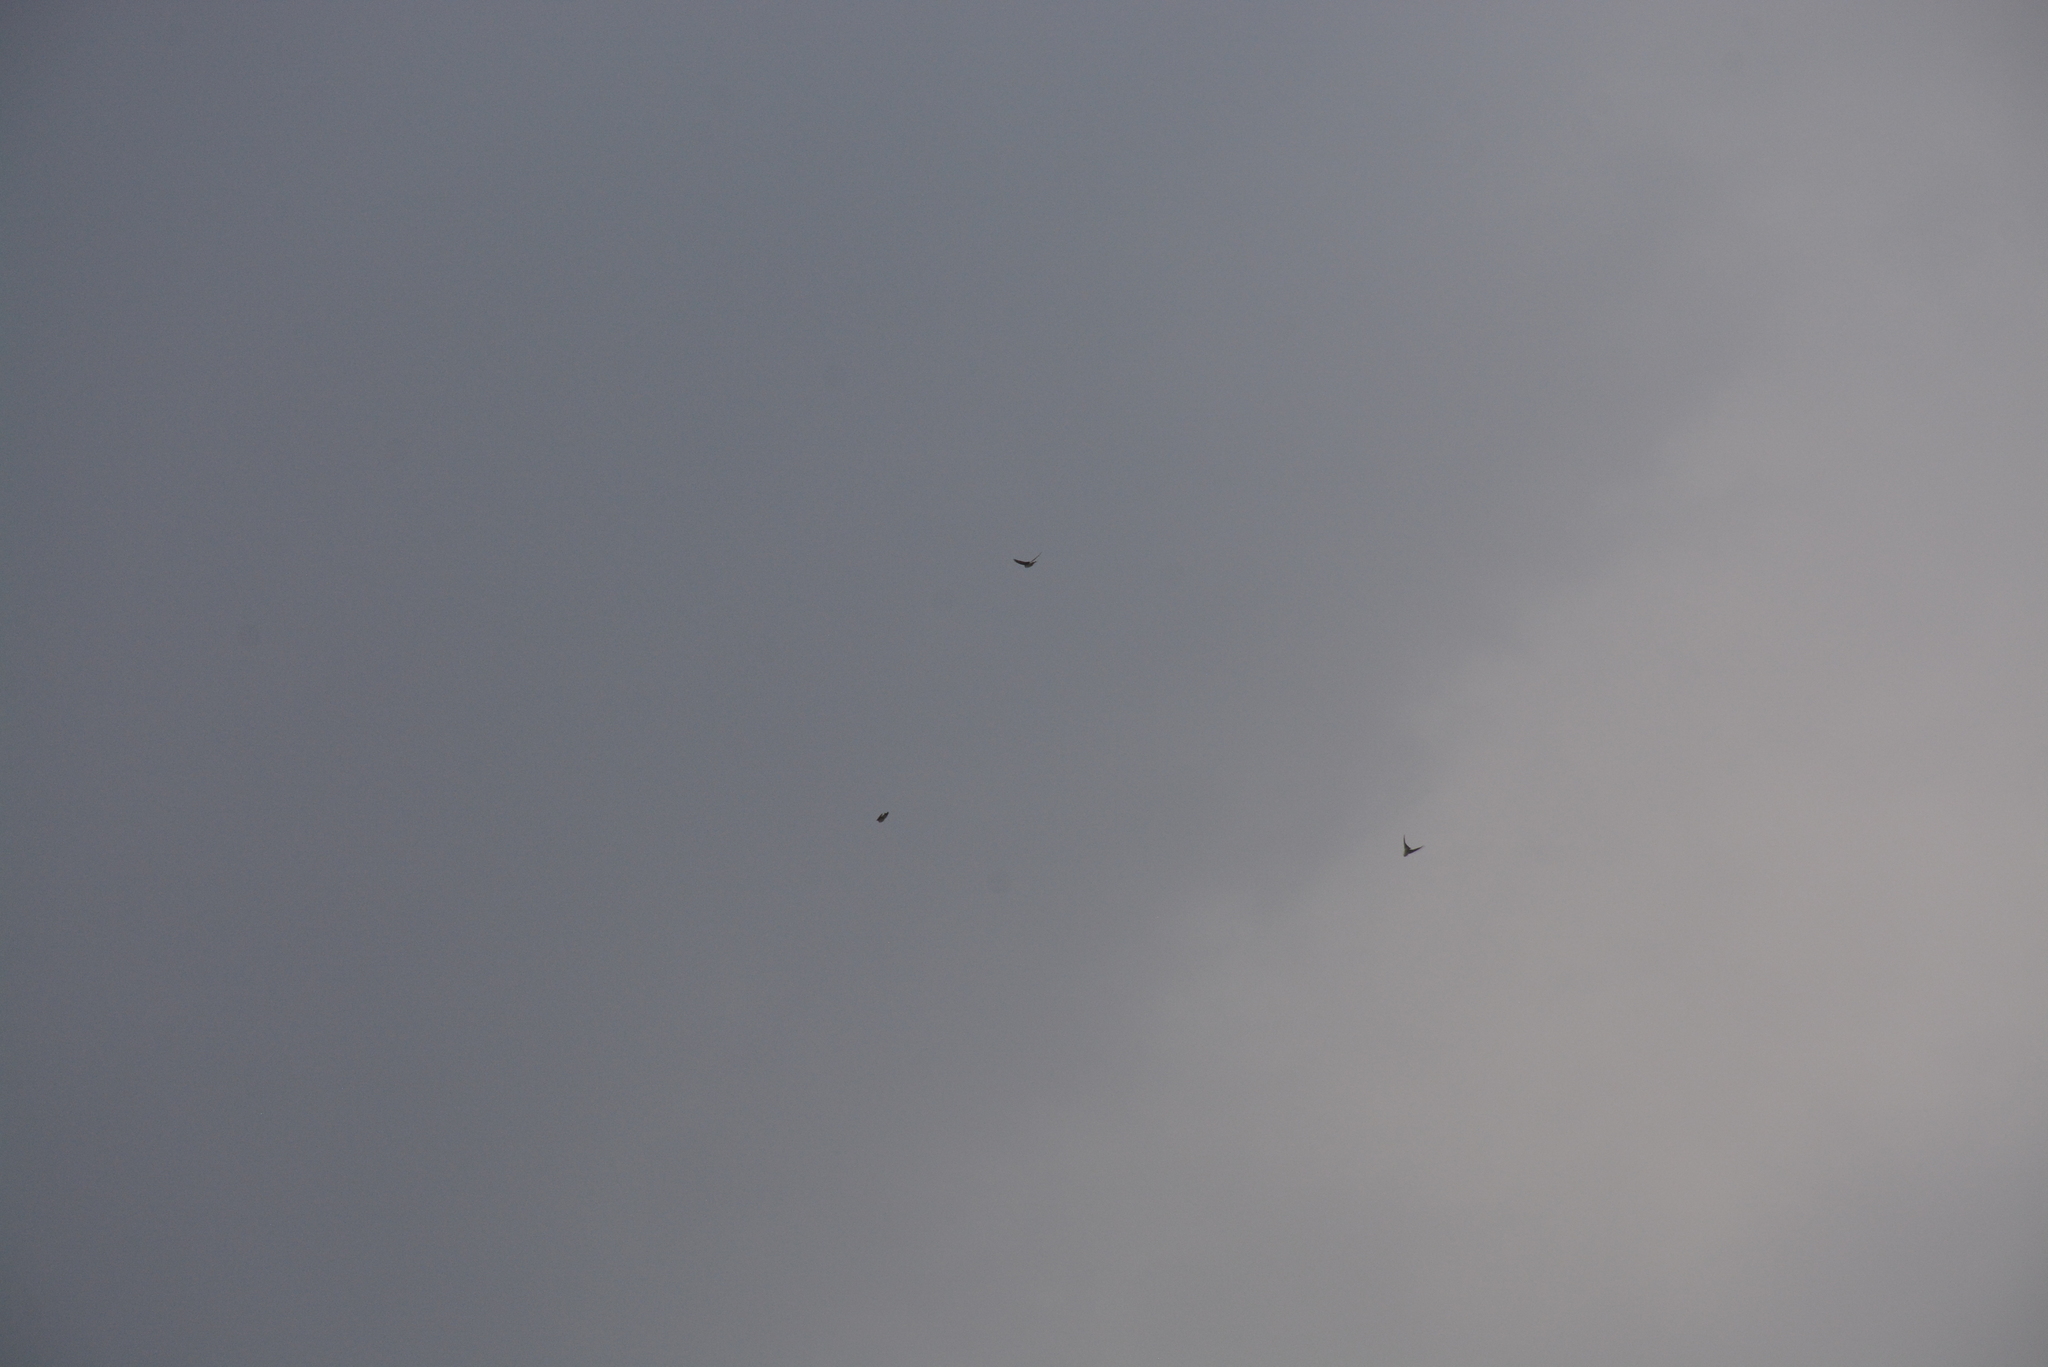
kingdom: Animalia
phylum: Chordata
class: Aves
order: Passeriformes
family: Hirundinidae
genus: Delichon
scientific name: Delichon urbicum
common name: Common house martin
